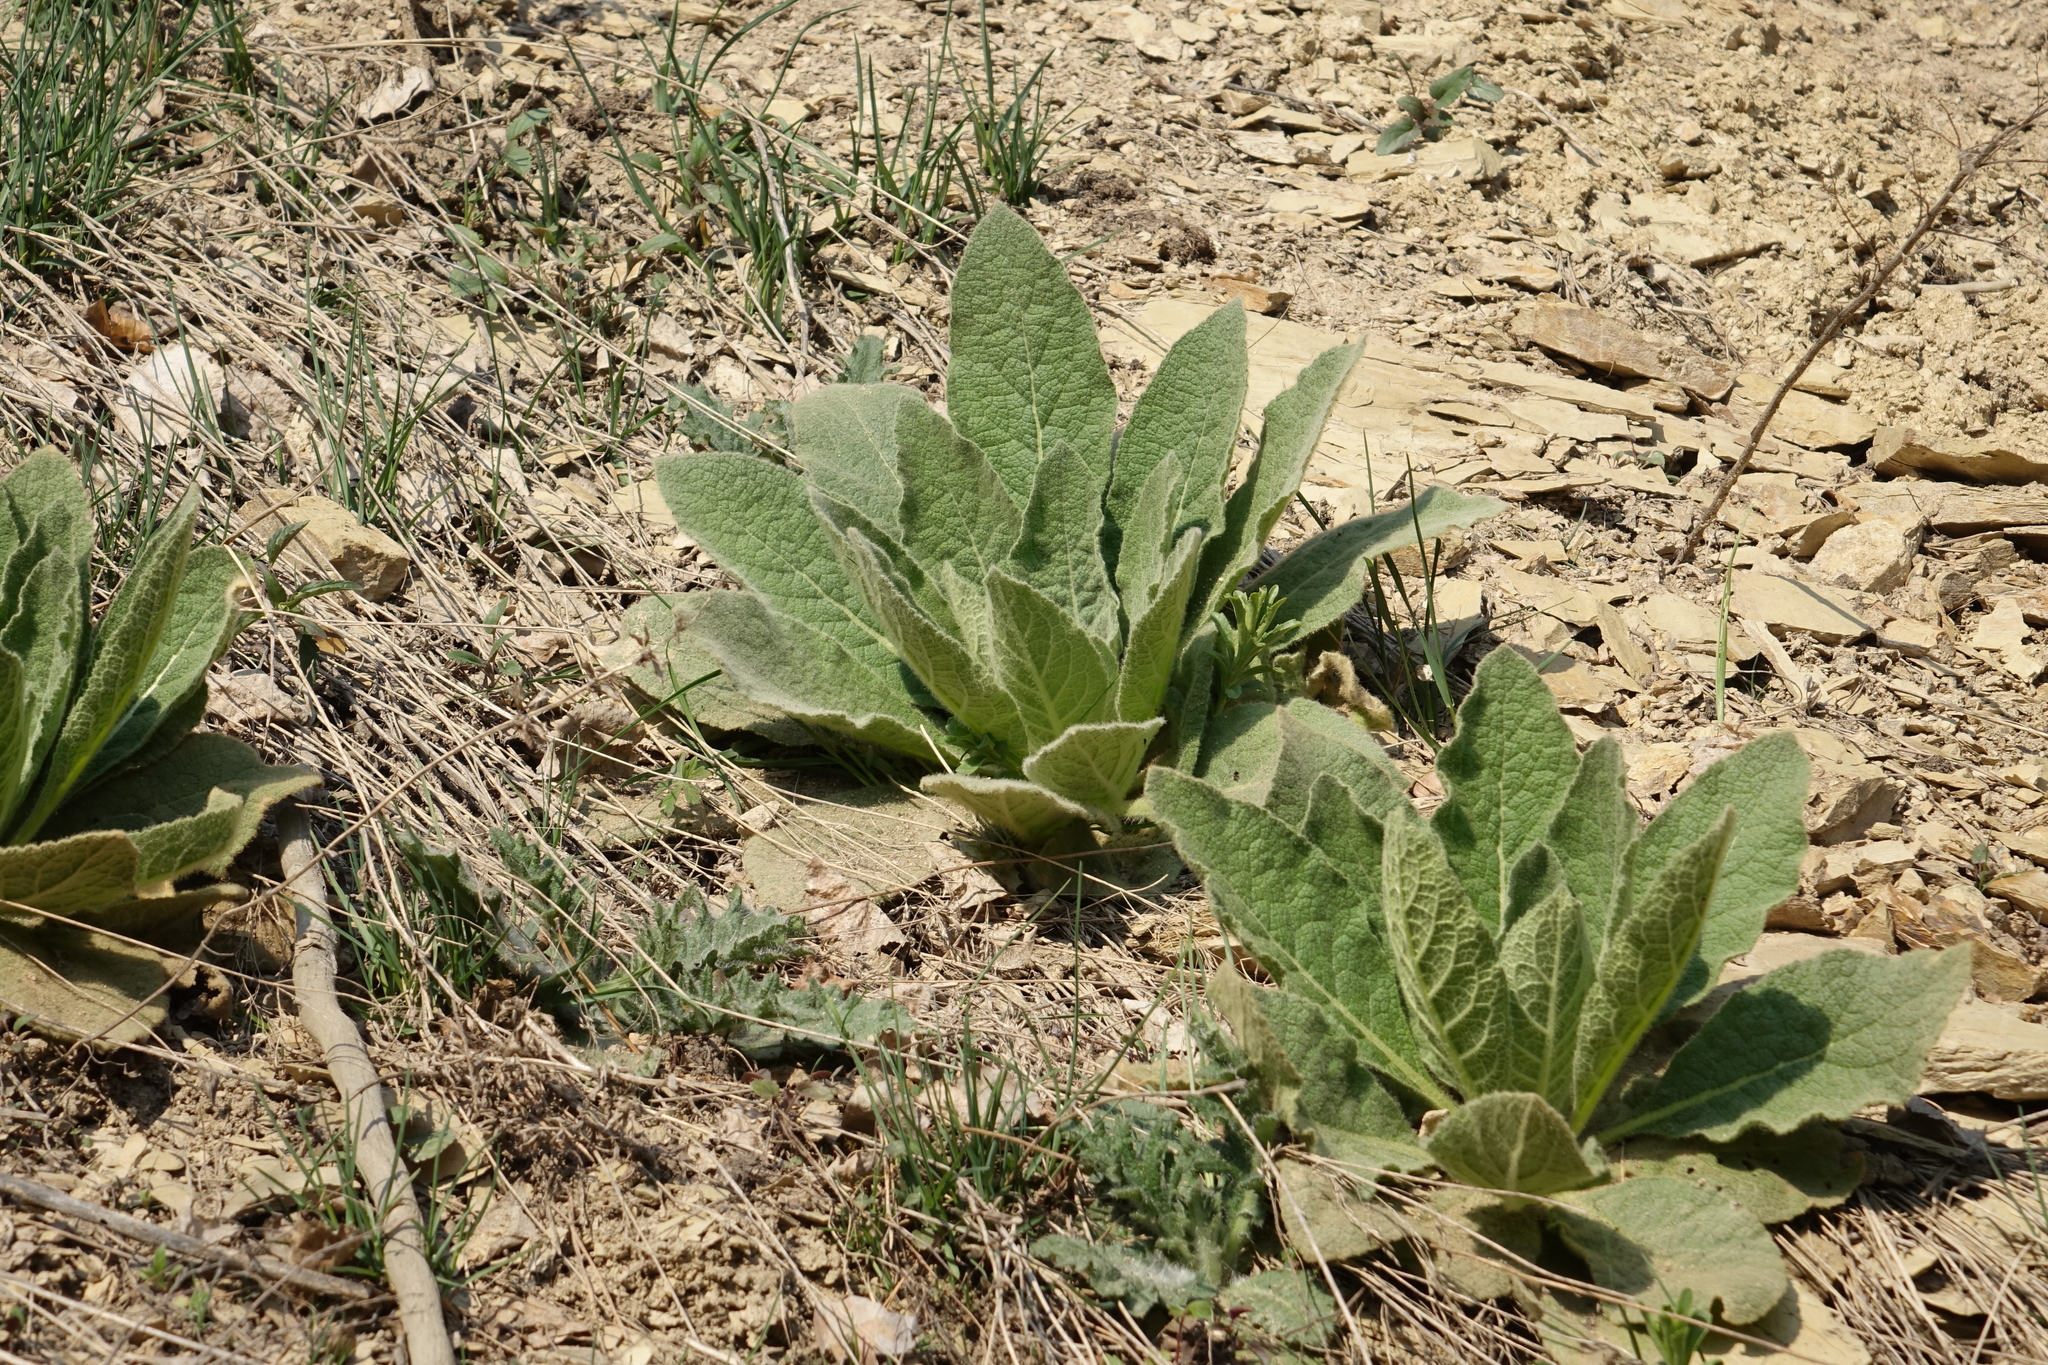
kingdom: Plantae
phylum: Tracheophyta
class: Magnoliopsida
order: Lamiales
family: Scrophulariaceae
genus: Verbascum
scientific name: Verbascum thapsus
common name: Common mullein
